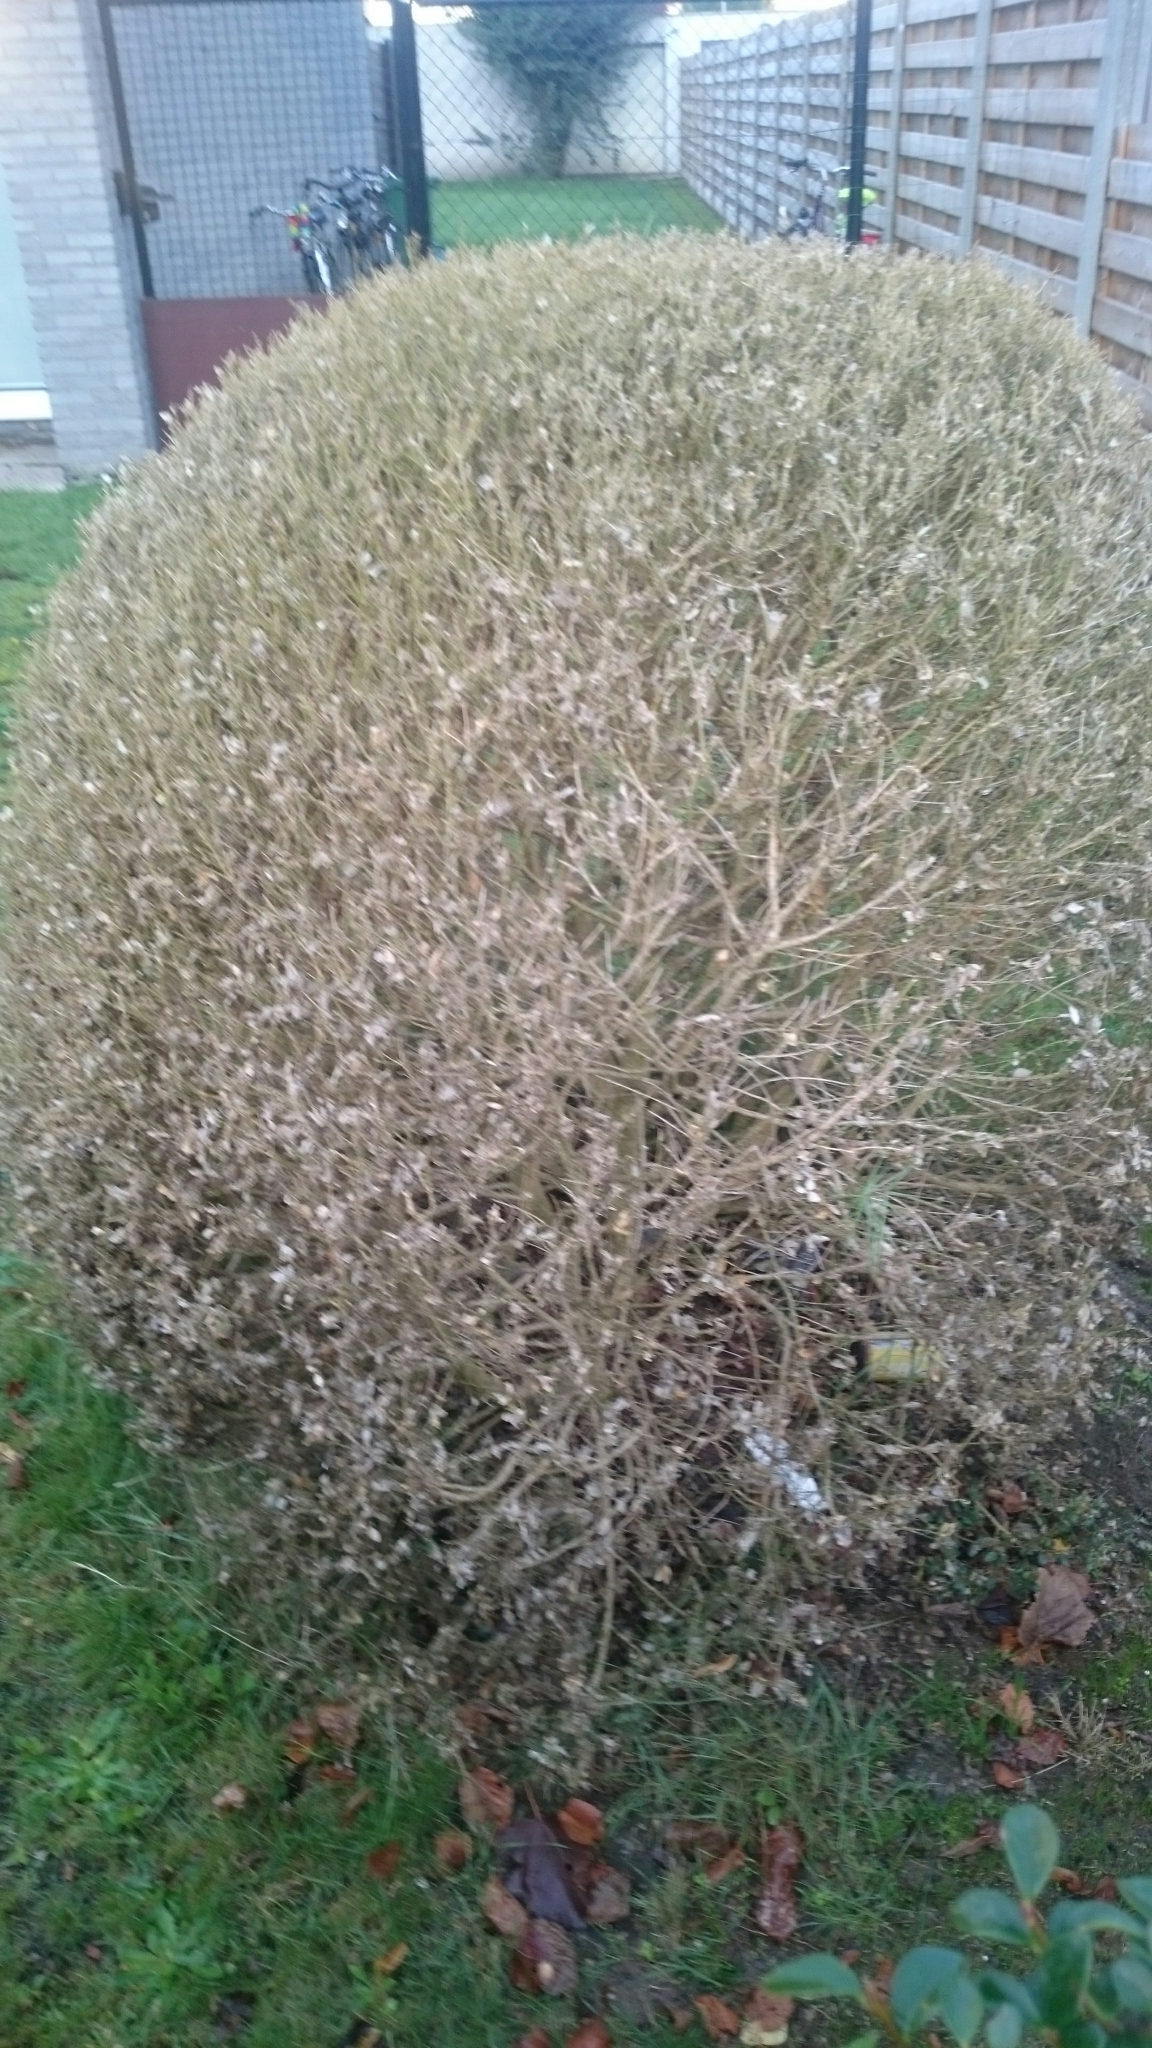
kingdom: Animalia
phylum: Arthropoda
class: Insecta
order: Lepidoptera
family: Crambidae
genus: Cydalima
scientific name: Cydalima perspectalis
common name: Box tree moth
